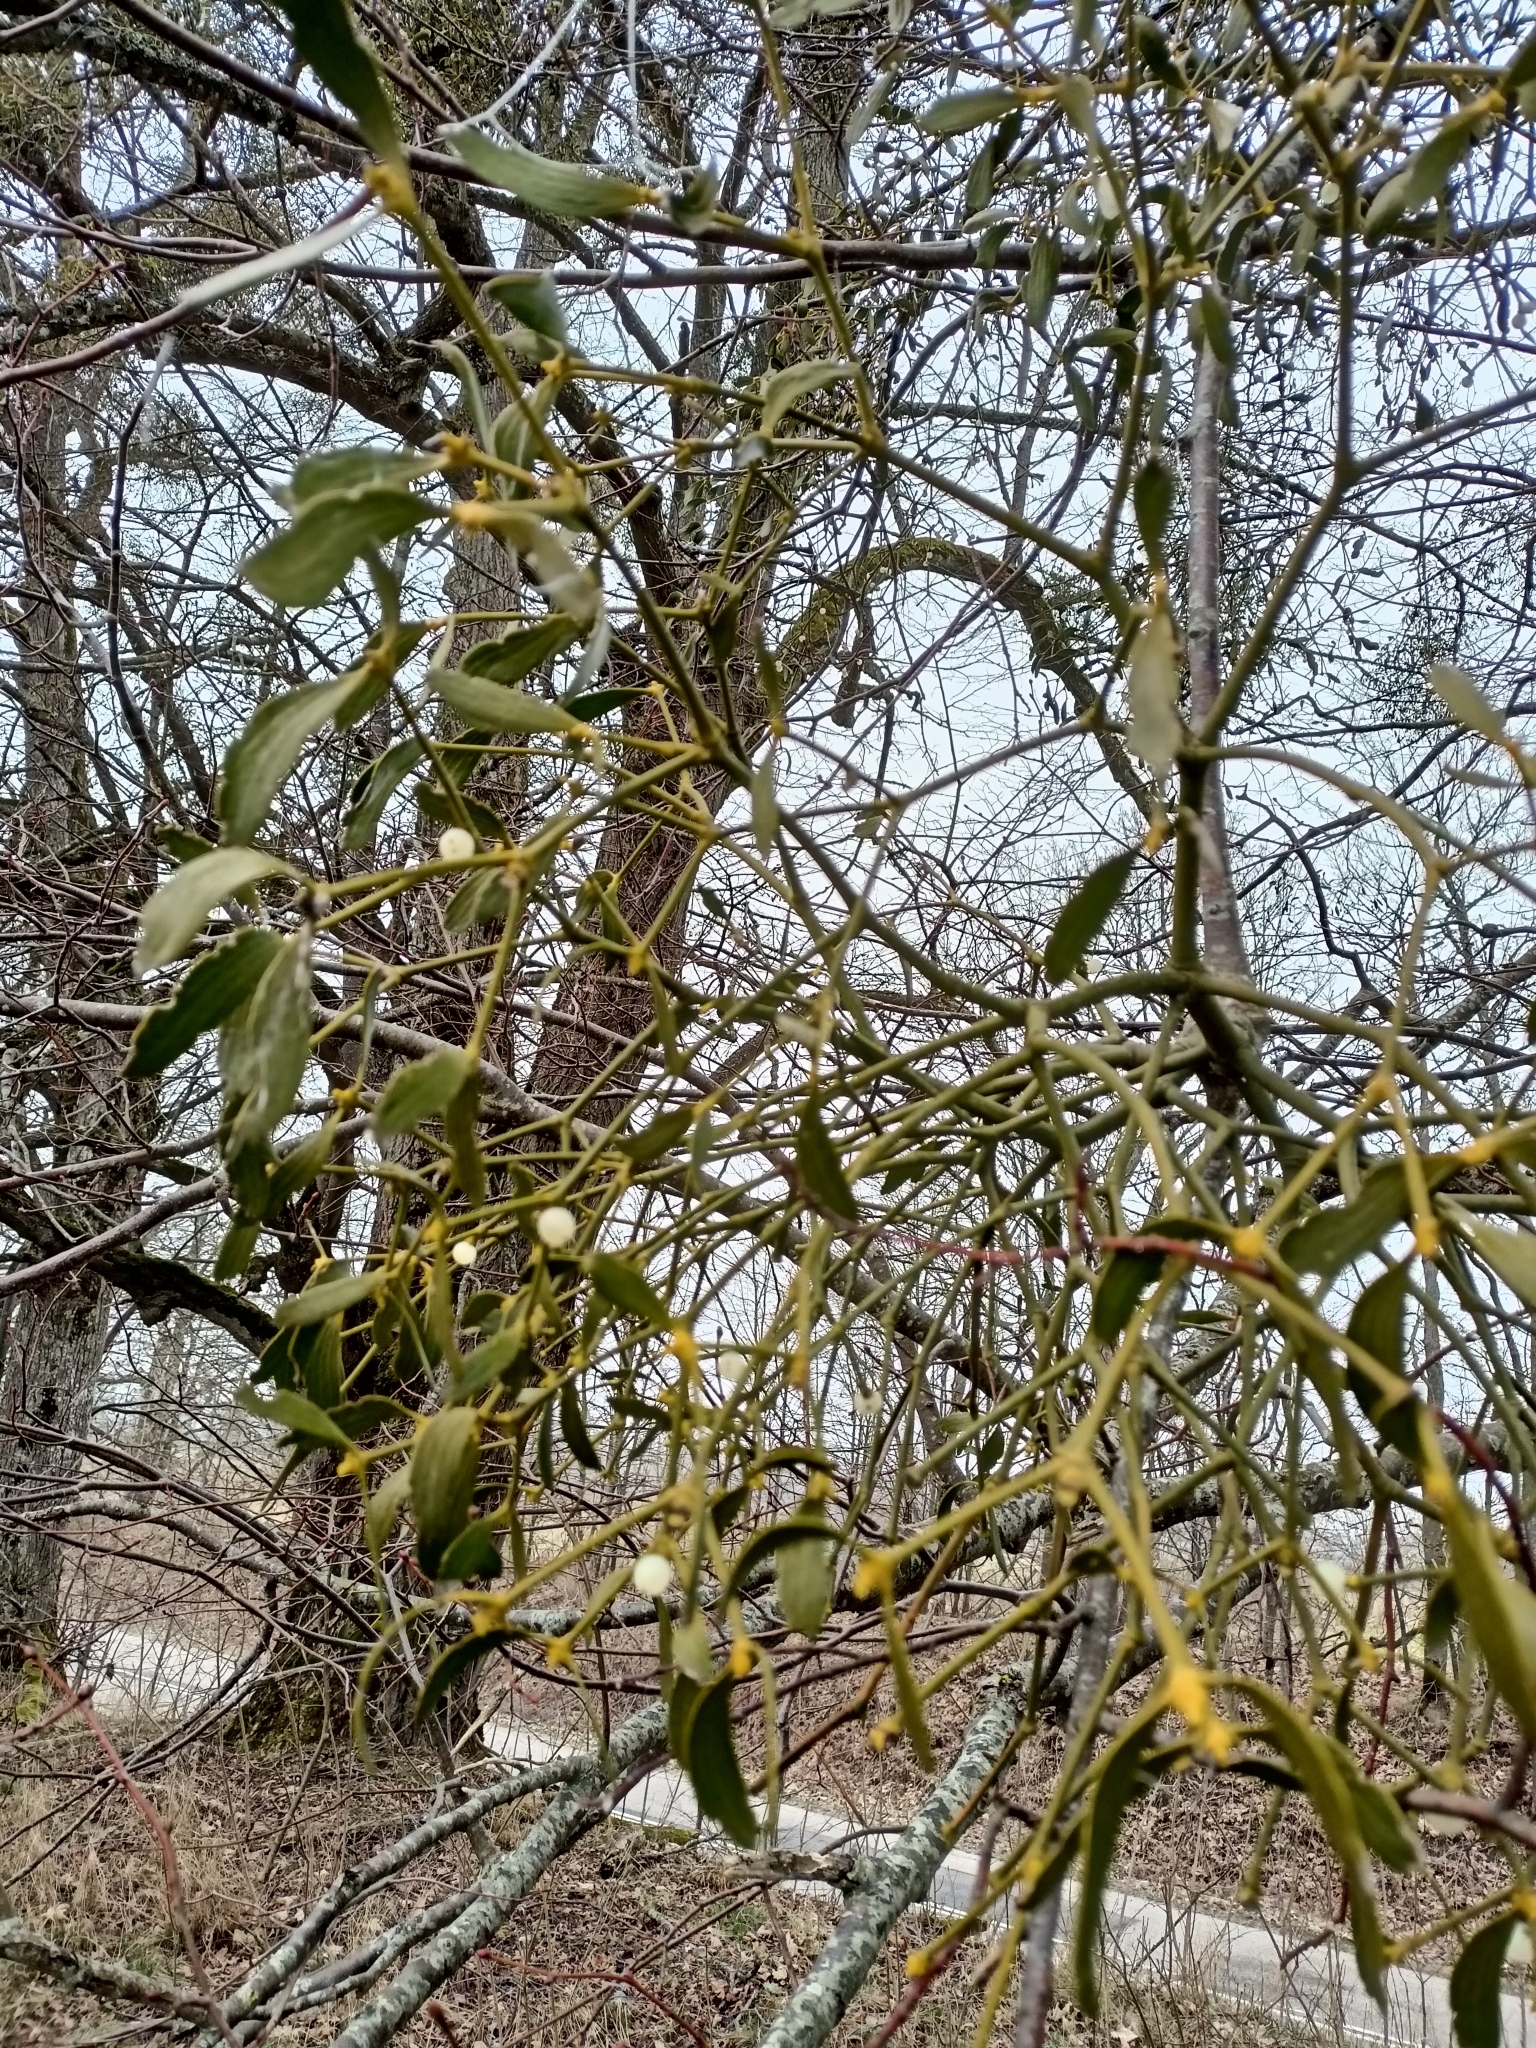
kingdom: Plantae
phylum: Tracheophyta
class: Magnoliopsida
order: Santalales
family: Viscaceae
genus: Viscum
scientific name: Viscum album
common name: Mistletoe
